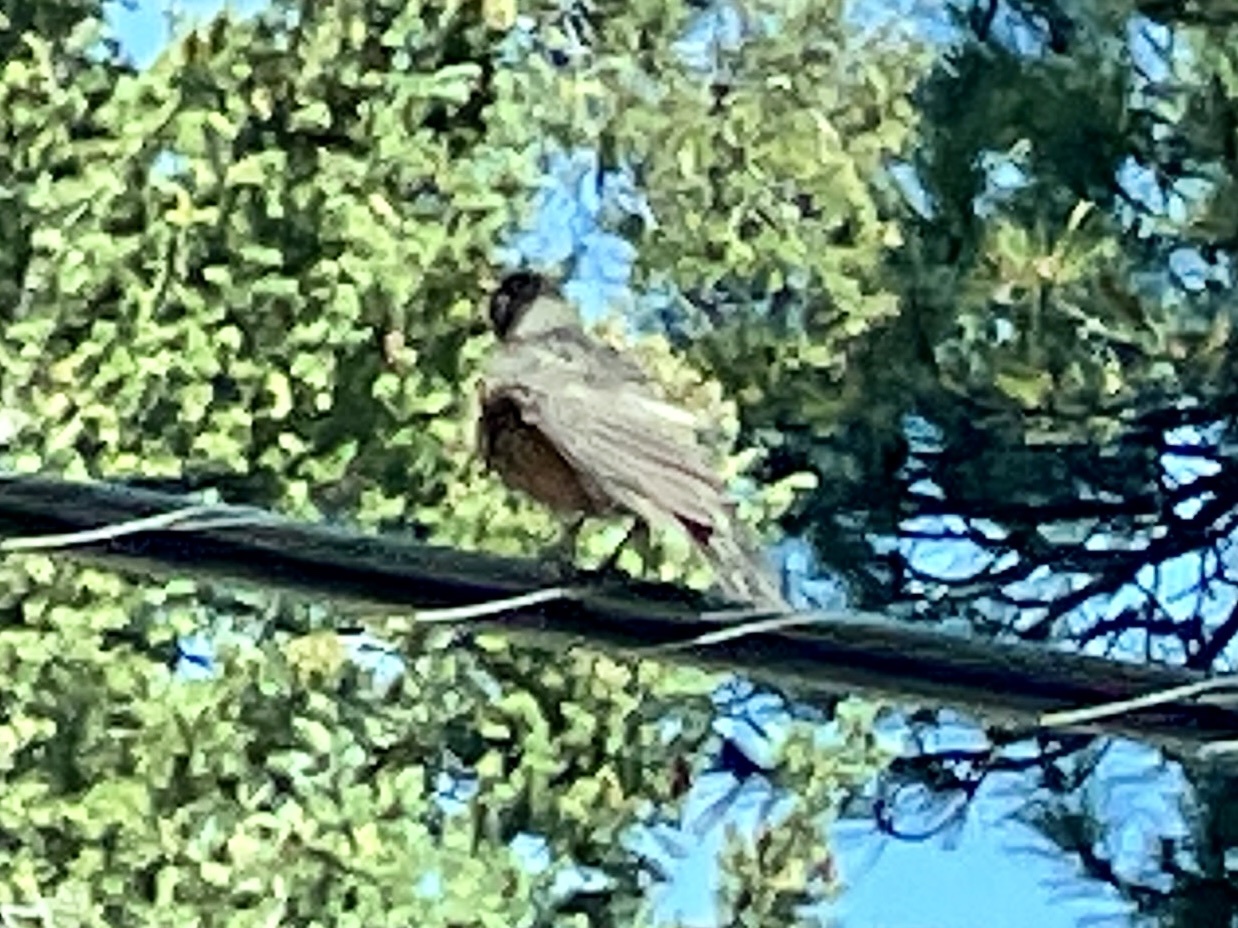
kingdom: Animalia
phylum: Chordata
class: Aves
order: Passeriformes
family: Turdidae
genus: Turdus
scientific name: Turdus migratorius
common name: American robin
